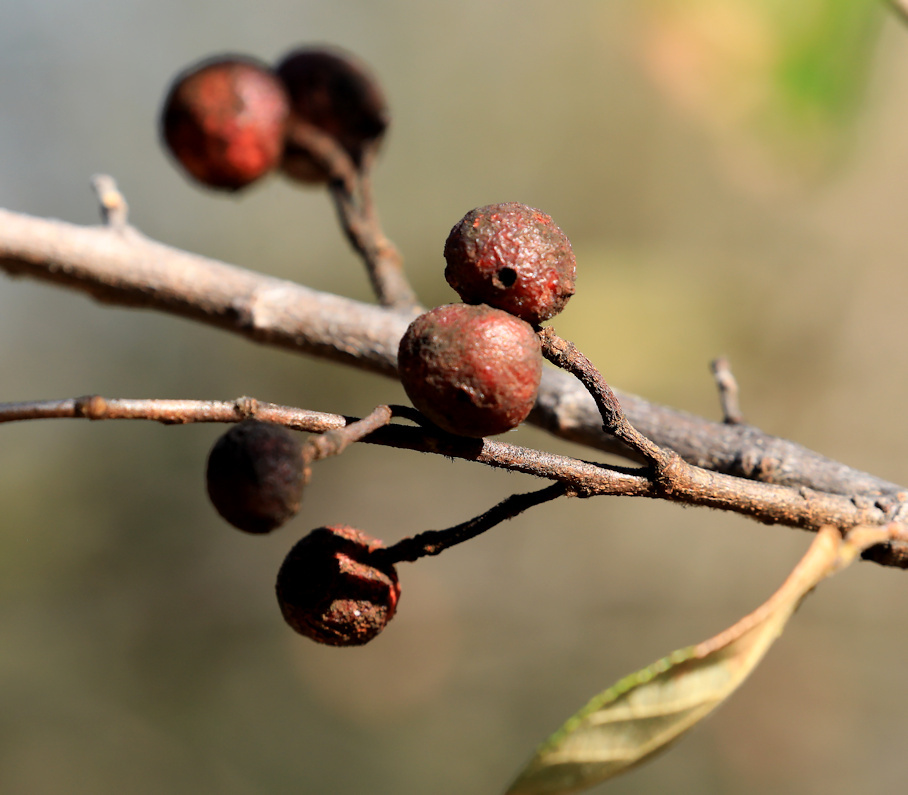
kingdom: Plantae
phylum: Tracheophyta
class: Magnoliopsida
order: Malvales
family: Malvaceae
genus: Grewia
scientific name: Grewia monticola
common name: Grey raisin
